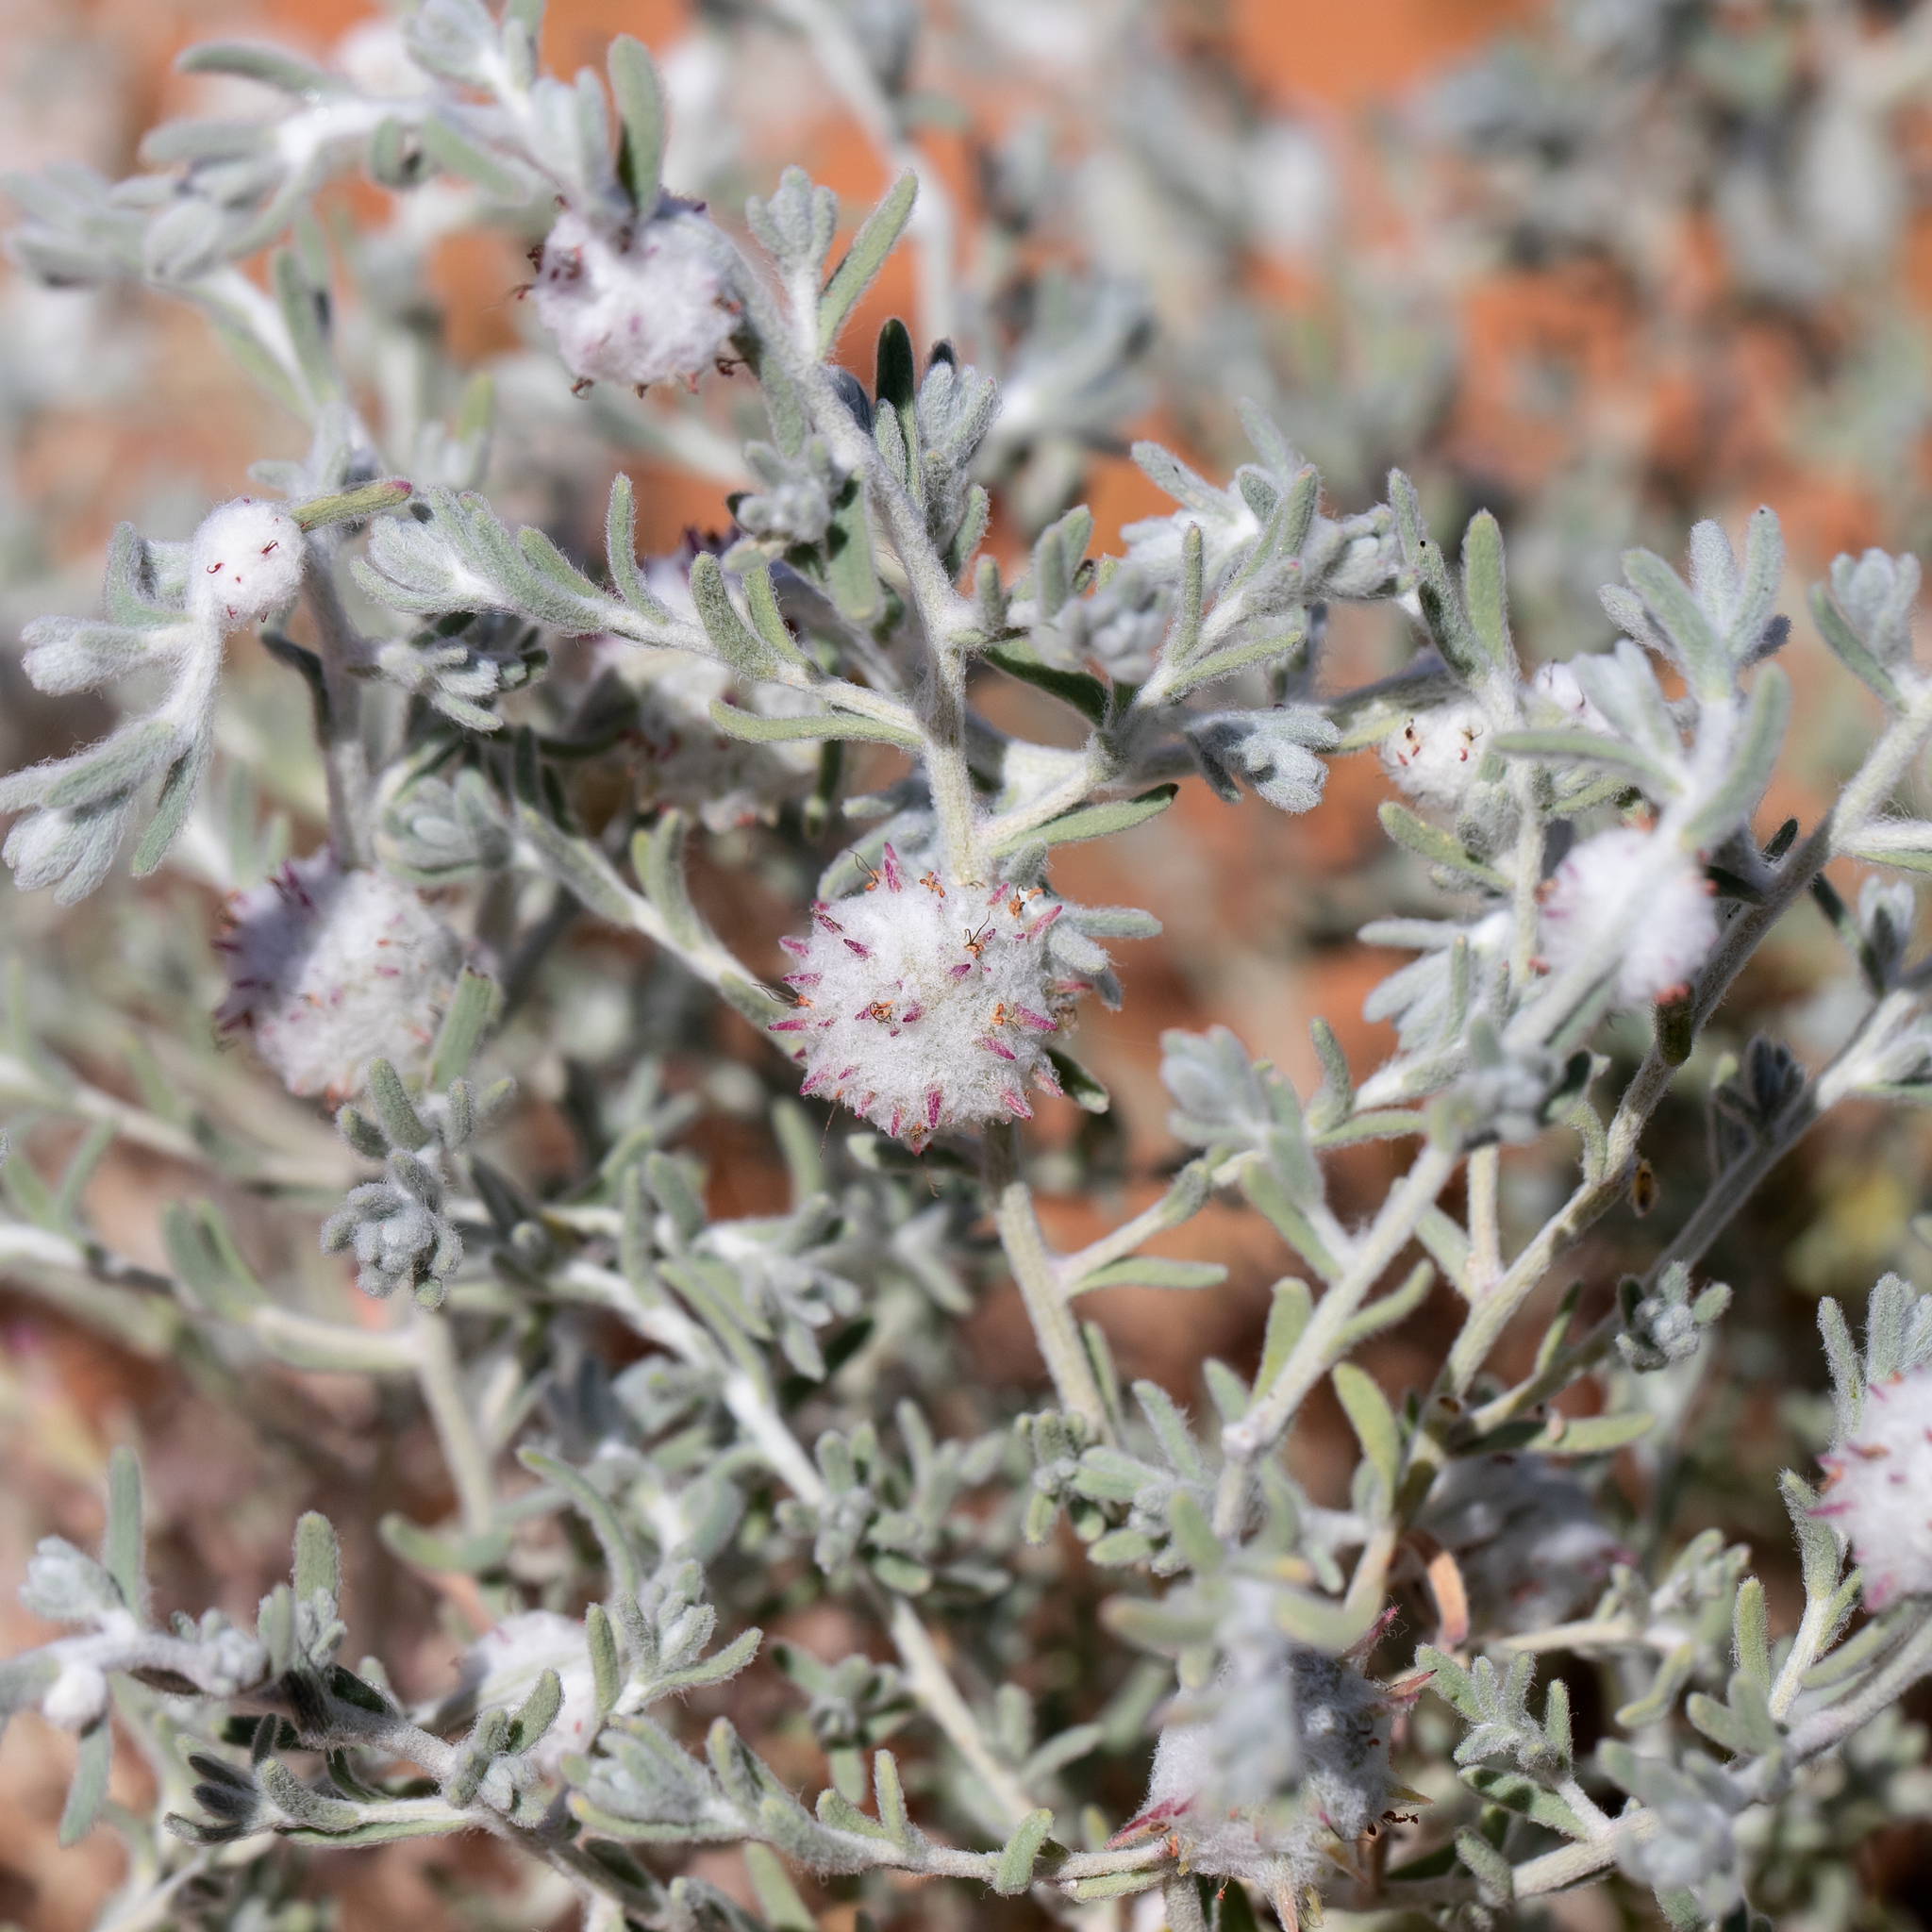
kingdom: Plantae
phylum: Tracheophyta
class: Magnoliopsida
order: Caryophyllales
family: Amaranthaceae
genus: Dissocarpus
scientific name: Dissocarpus paradoxus
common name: Bur-saltbush
